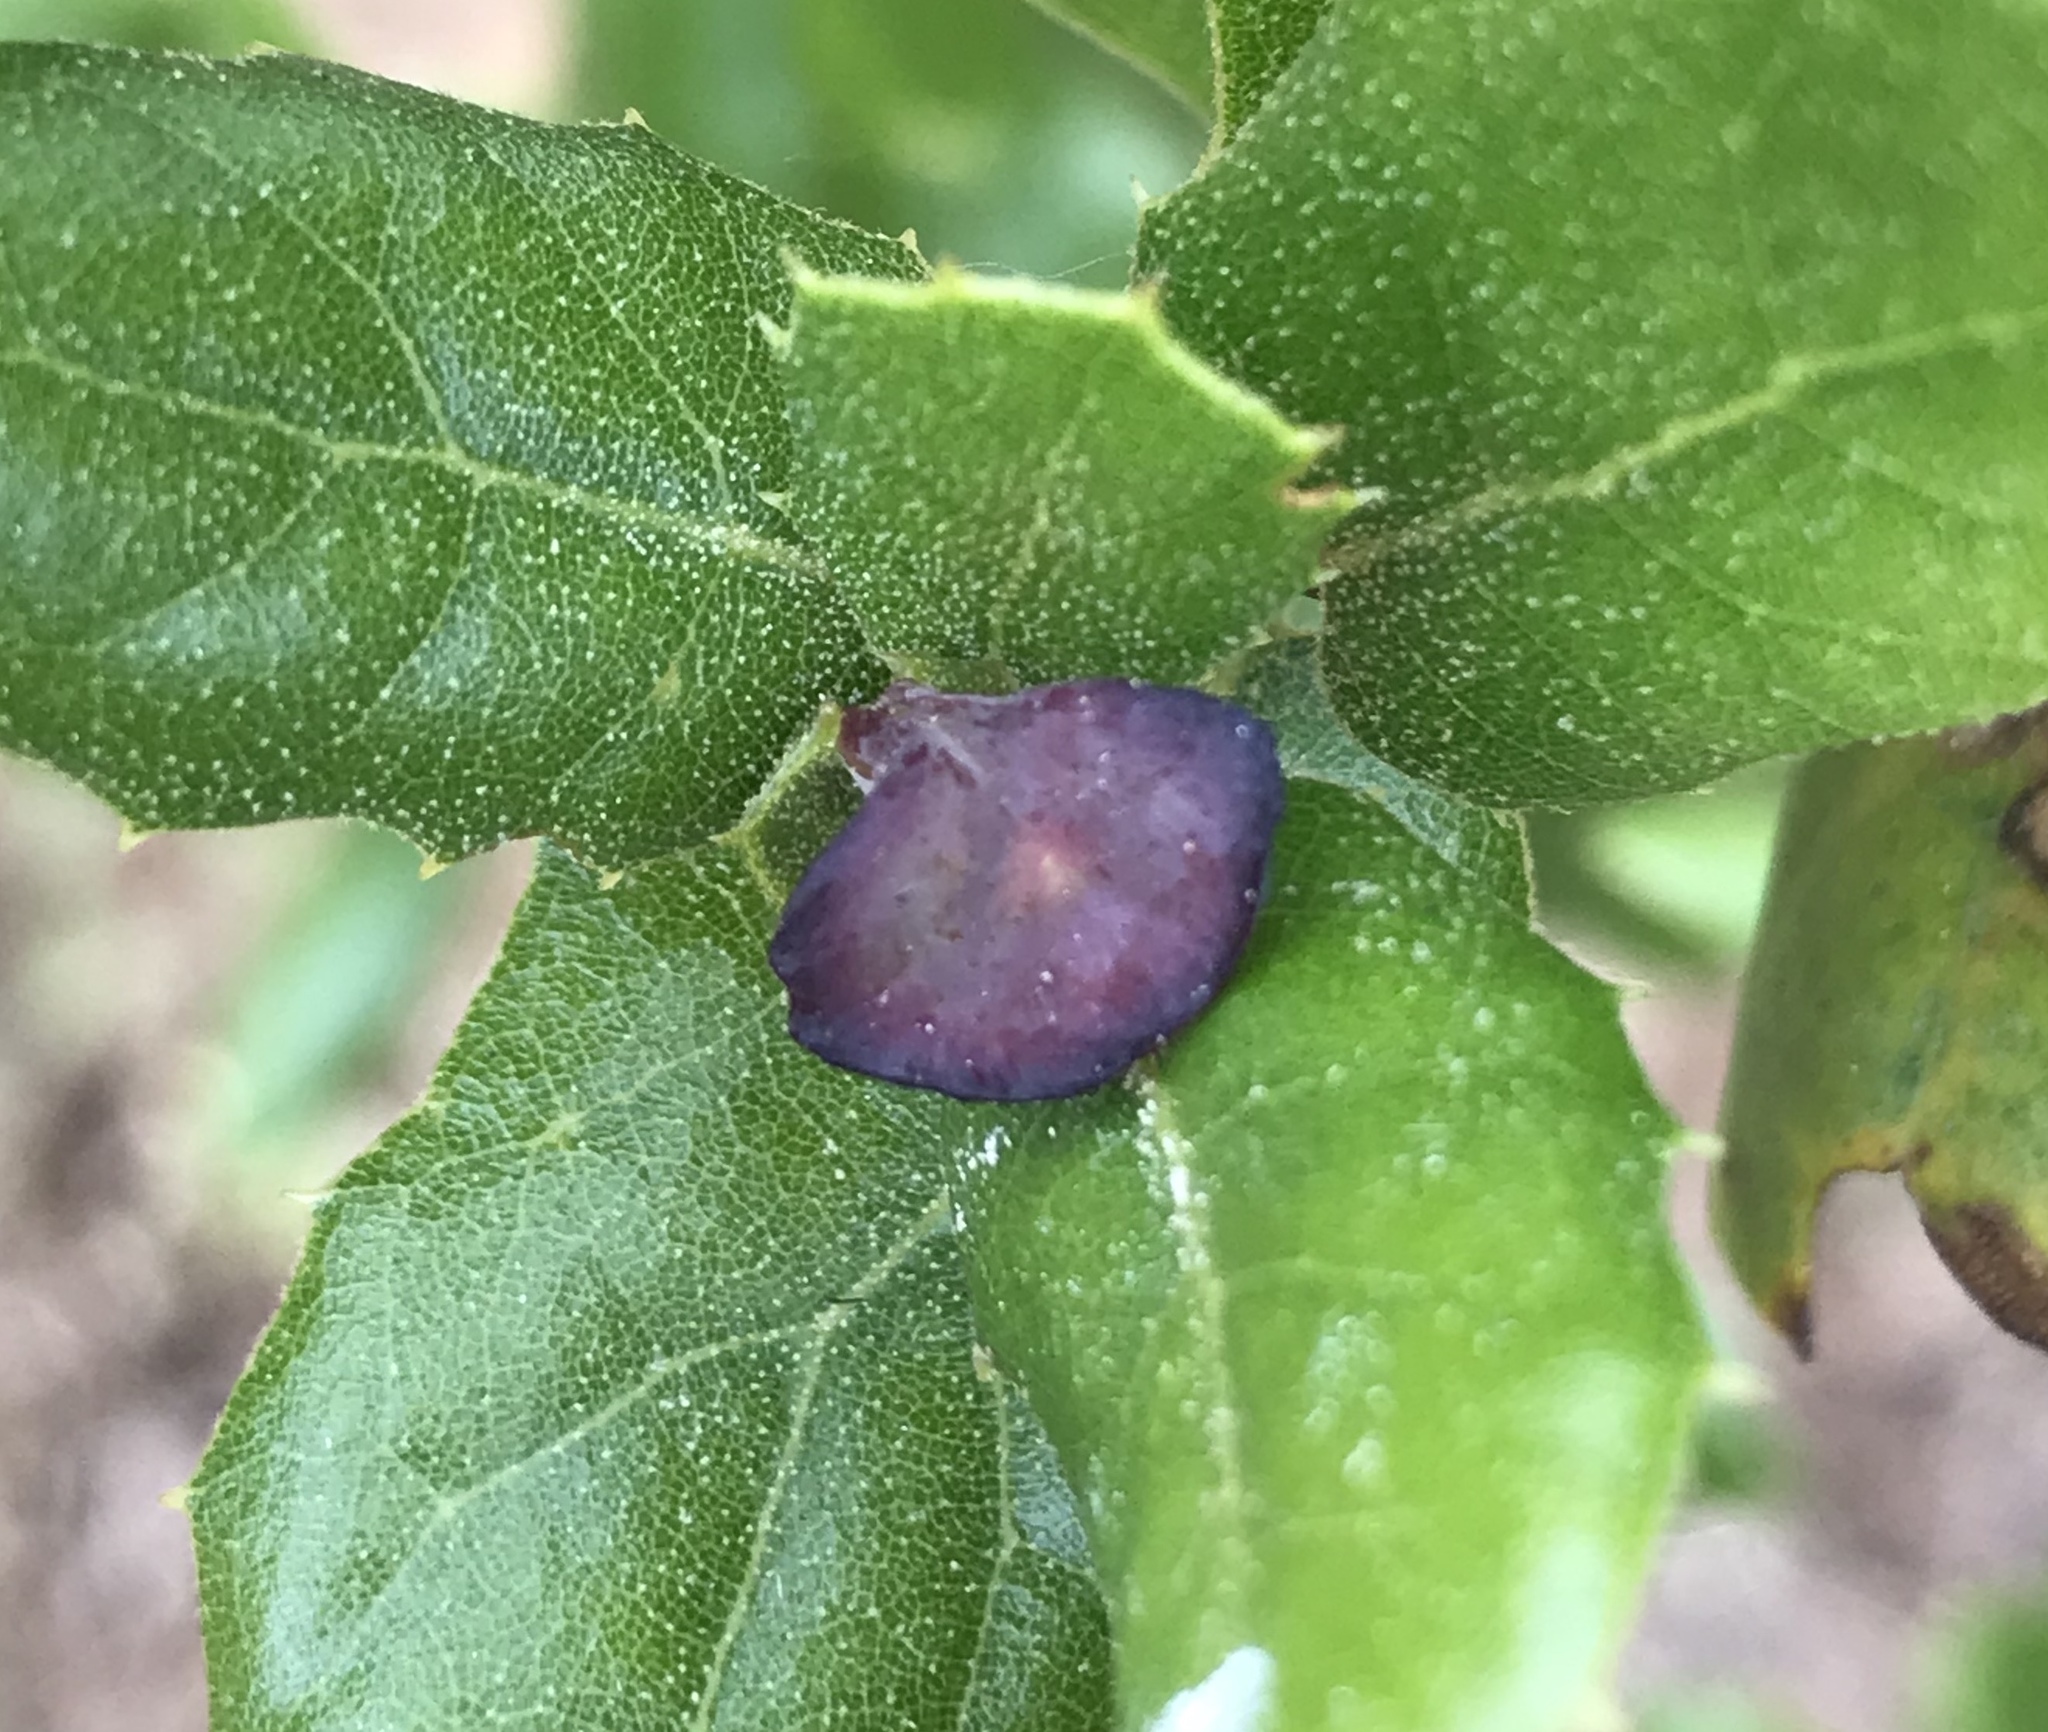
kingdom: Animalia
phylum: Arthropoda
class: Insecta
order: Hymenoptera
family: Cynipidae
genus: Amphibolips
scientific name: Amphibolips quercuspomiformis
